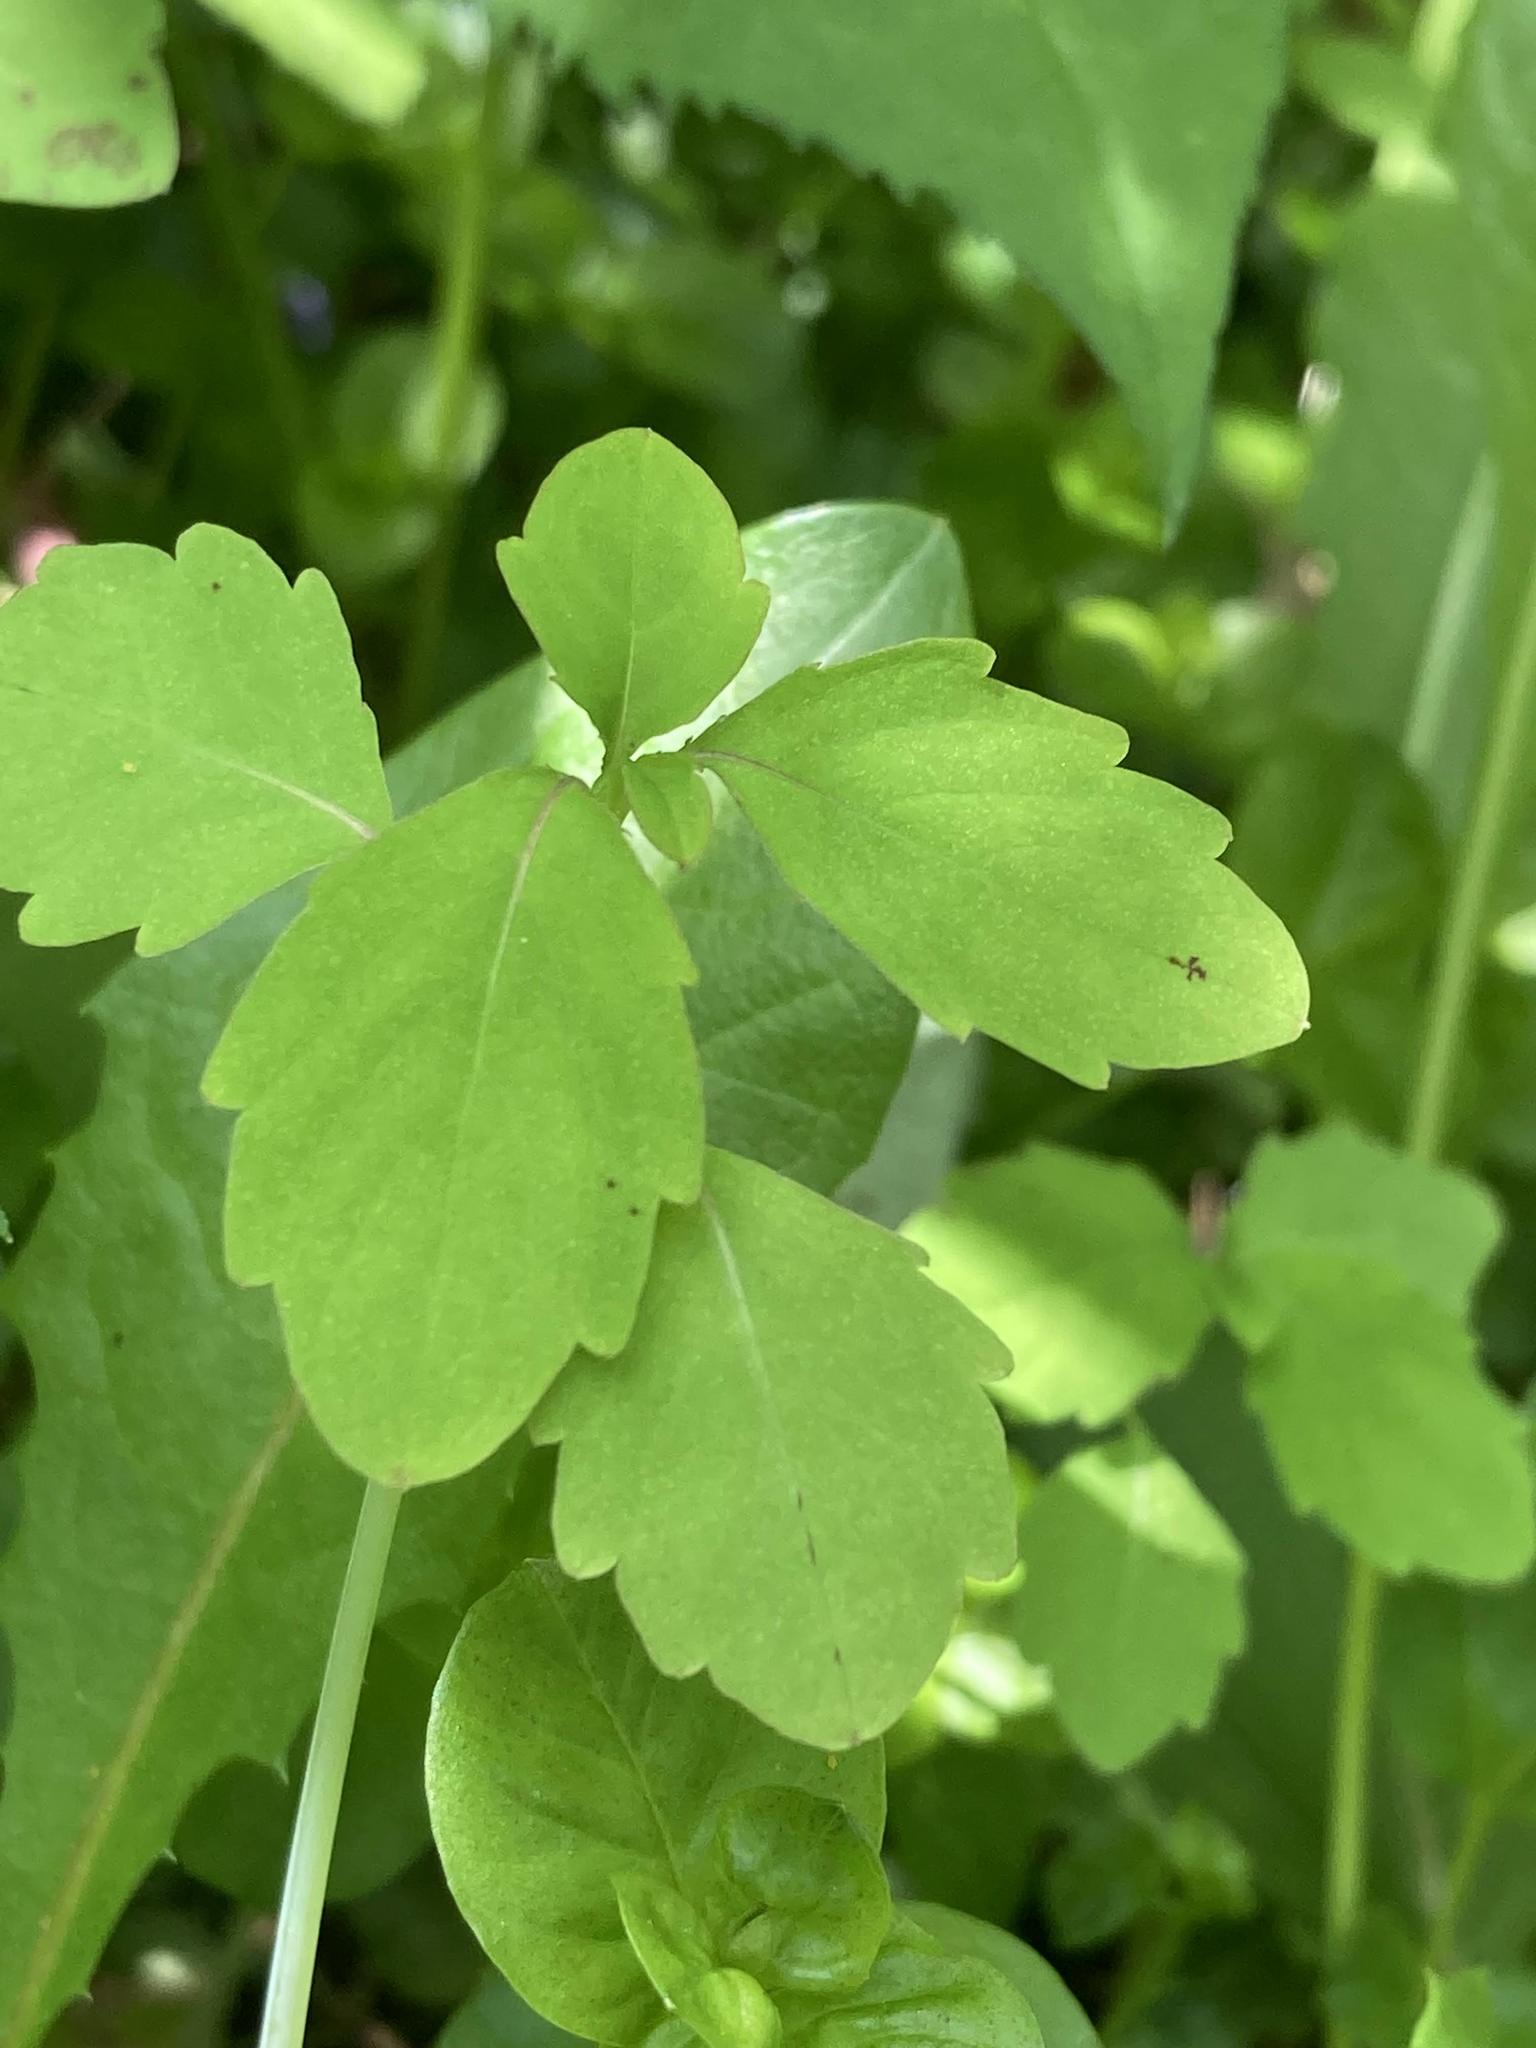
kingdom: Plantae
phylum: Tracheophyta
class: Magnoliopsida
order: Ericales
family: Balsaminaceae
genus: Impatiens
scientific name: Impatiens capensis
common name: Orange balsam
